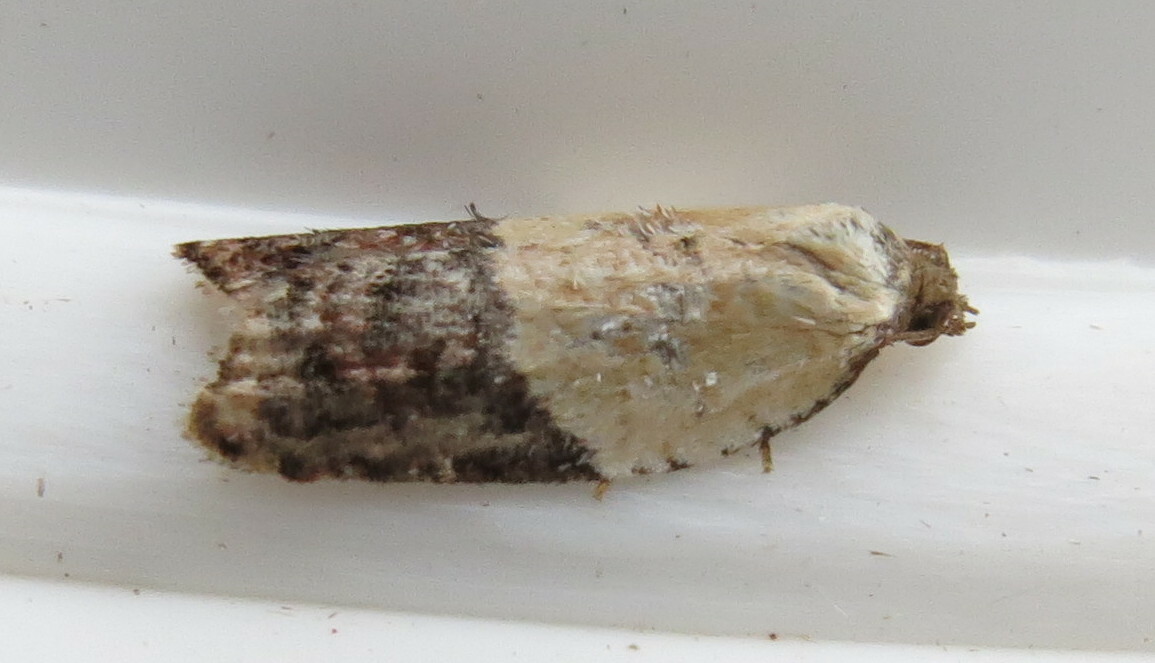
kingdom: Animalia
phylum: Arthropoda
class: Insecta
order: Lepidoptera
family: Tortricidae
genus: Acleris
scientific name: Acleris variegana
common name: Garden rose tortrix
